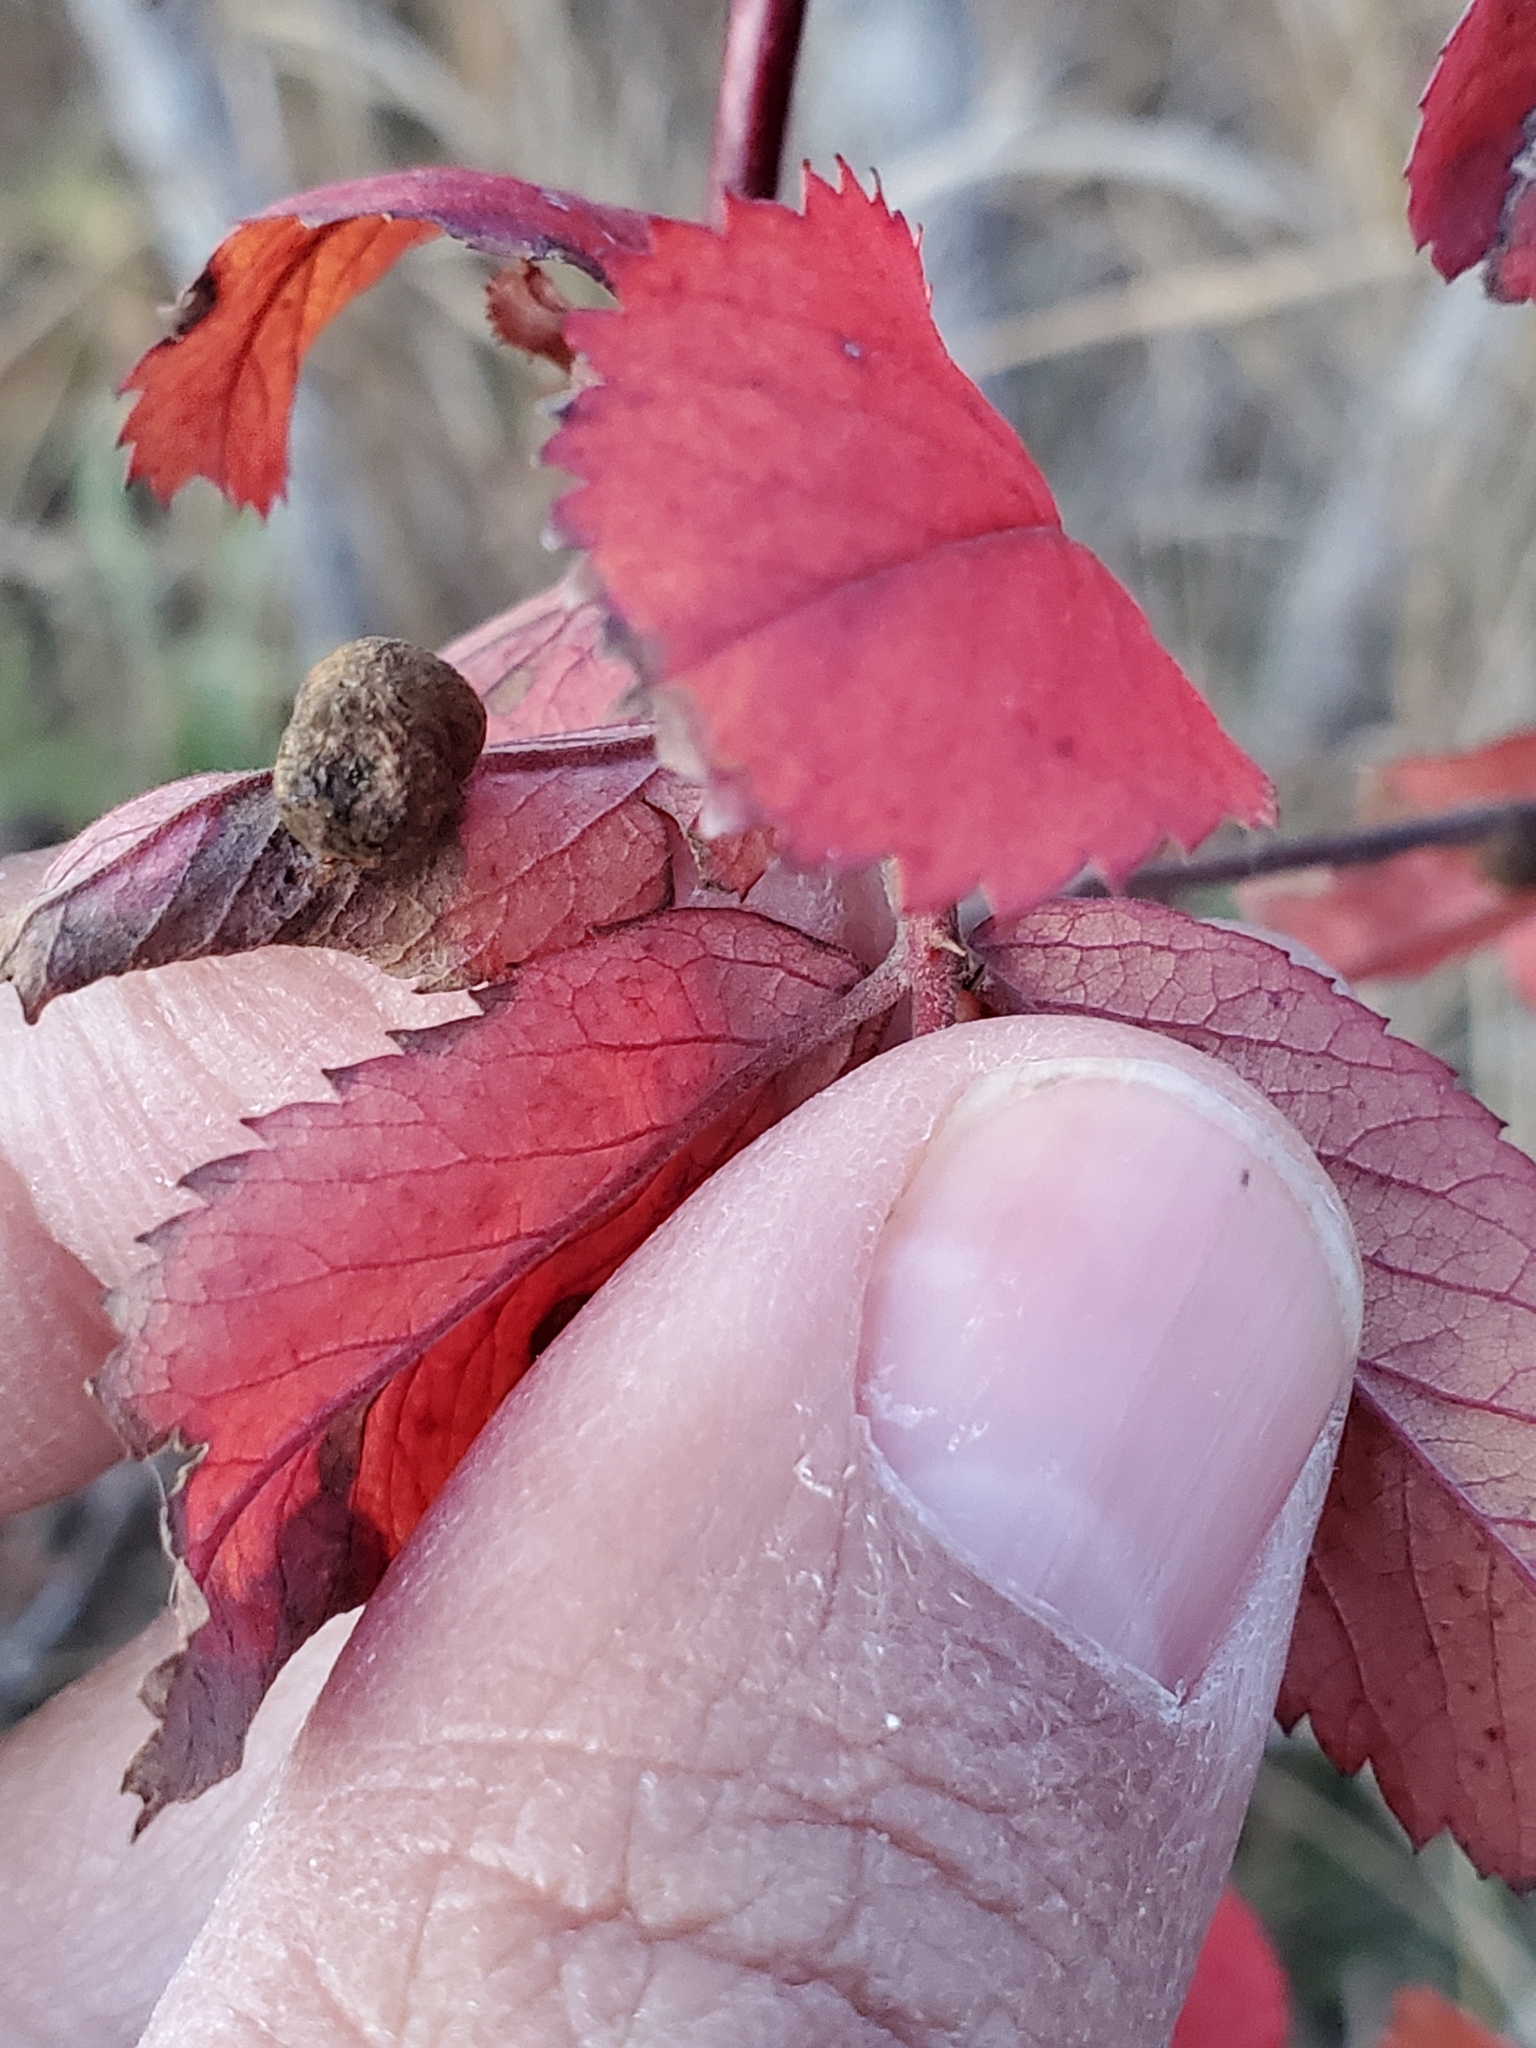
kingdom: Animalia
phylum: Arthropoda
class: Insecta
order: Hymenoptera
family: Cynipidae
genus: Diplolepis
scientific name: Diplolepis ignota
